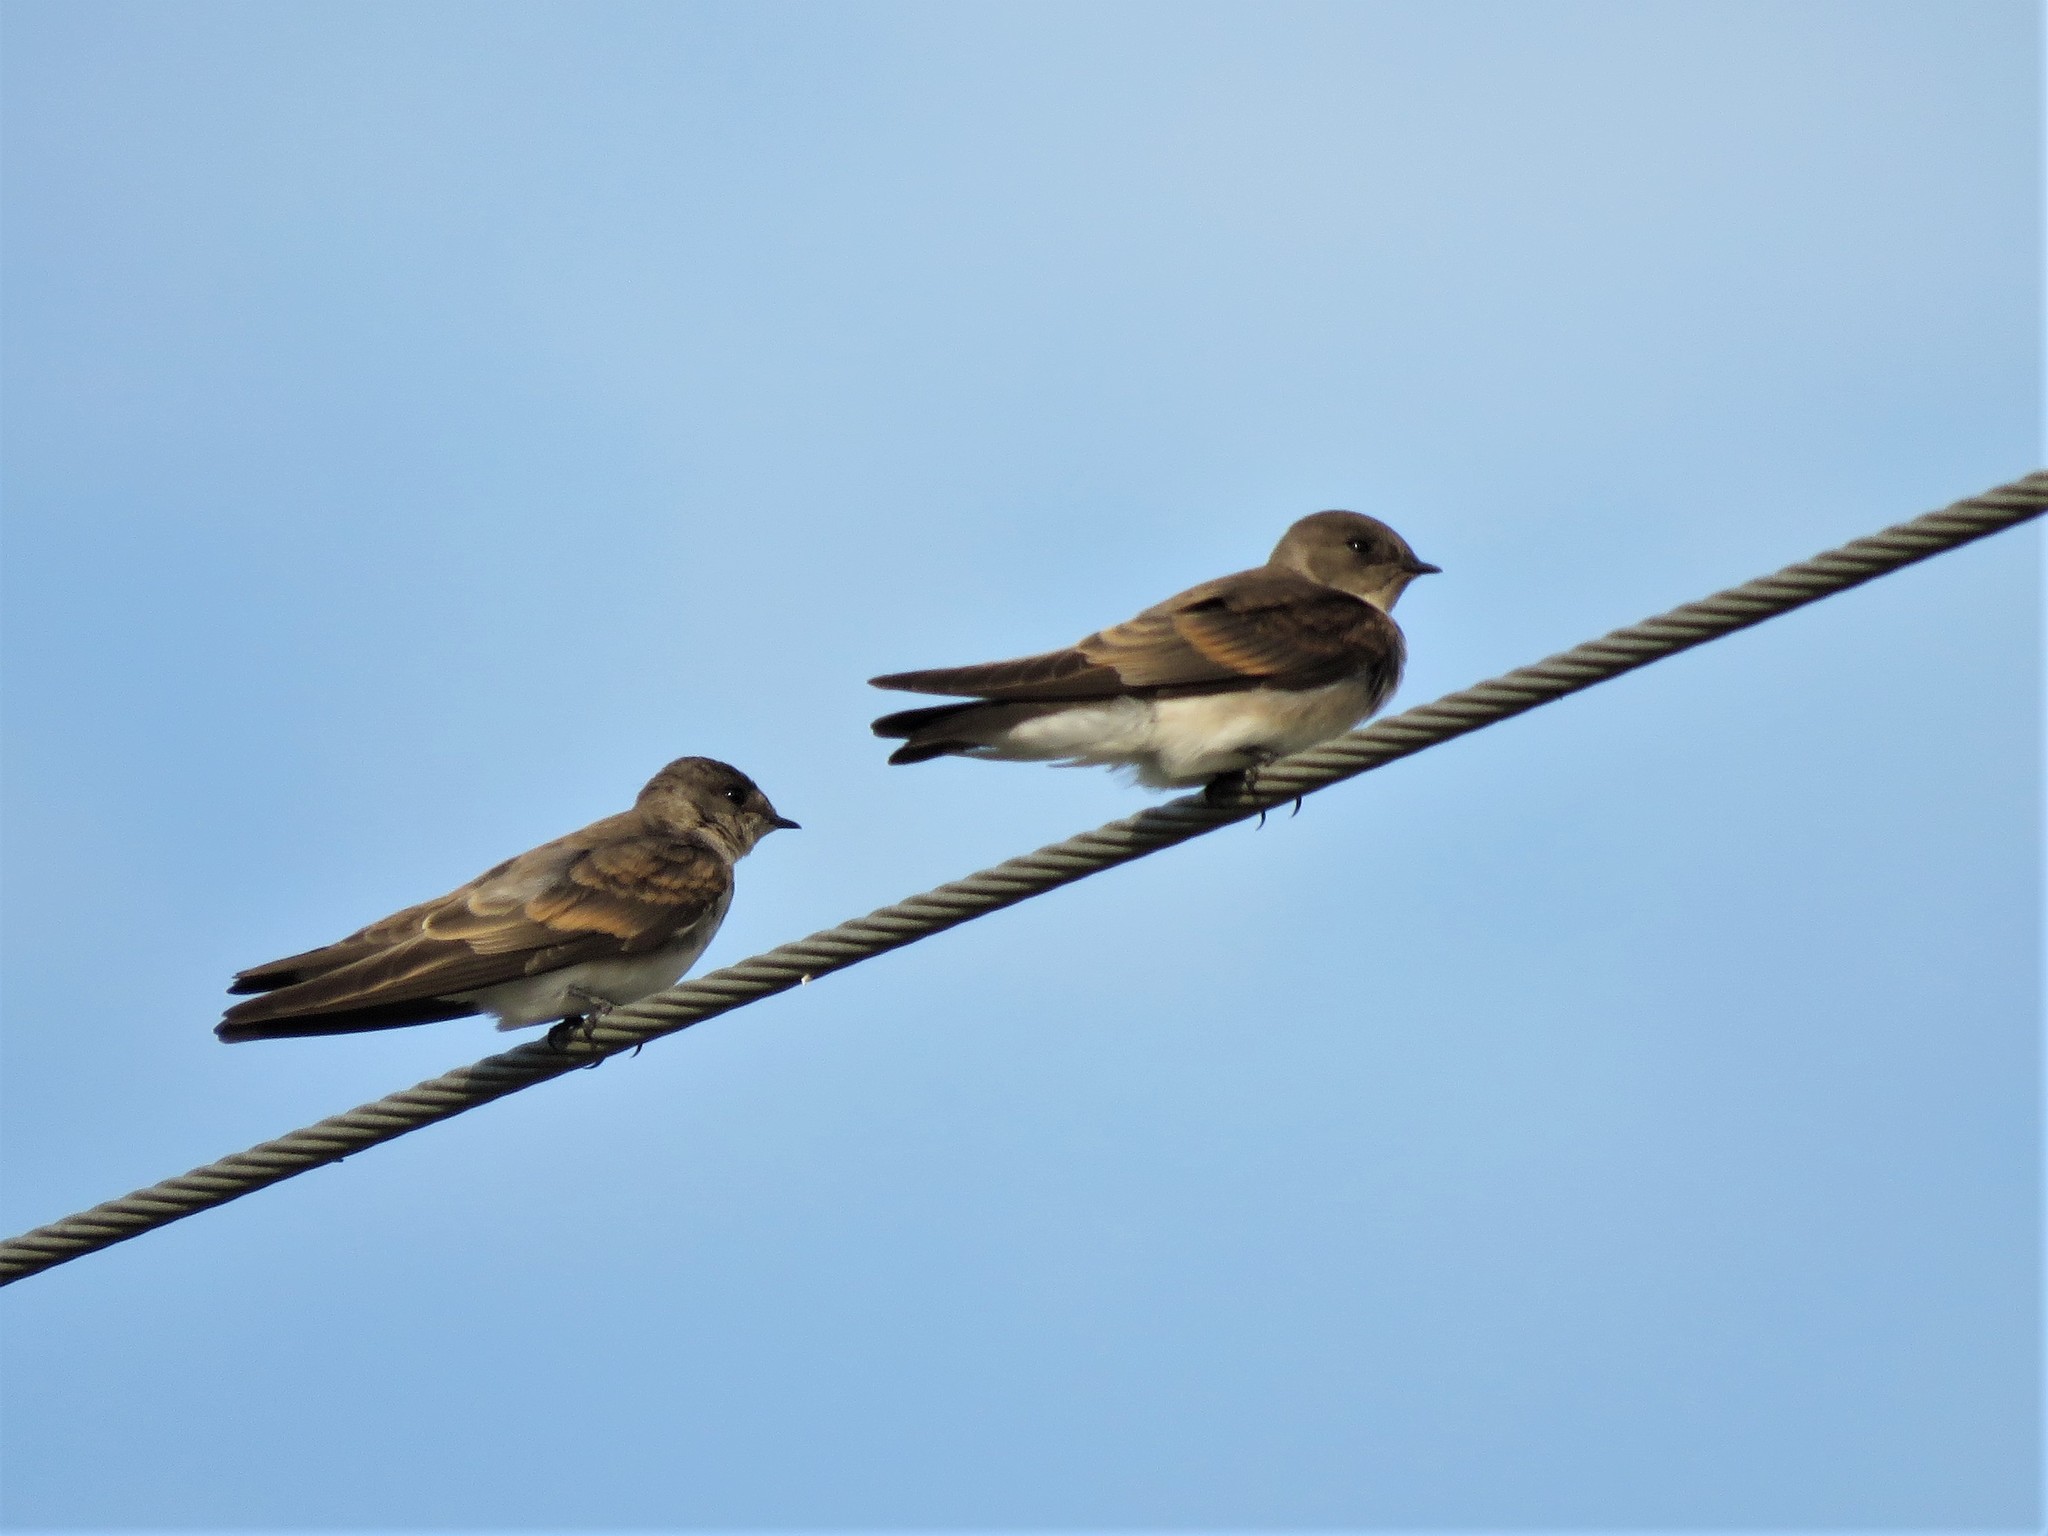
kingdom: Animalia
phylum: Chordata
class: Aves
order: Passeriformes
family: Hirundinidae
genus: Stelgidopteryx
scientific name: Stelgidopteryx serripennis
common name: Northern rough-winged swallow
